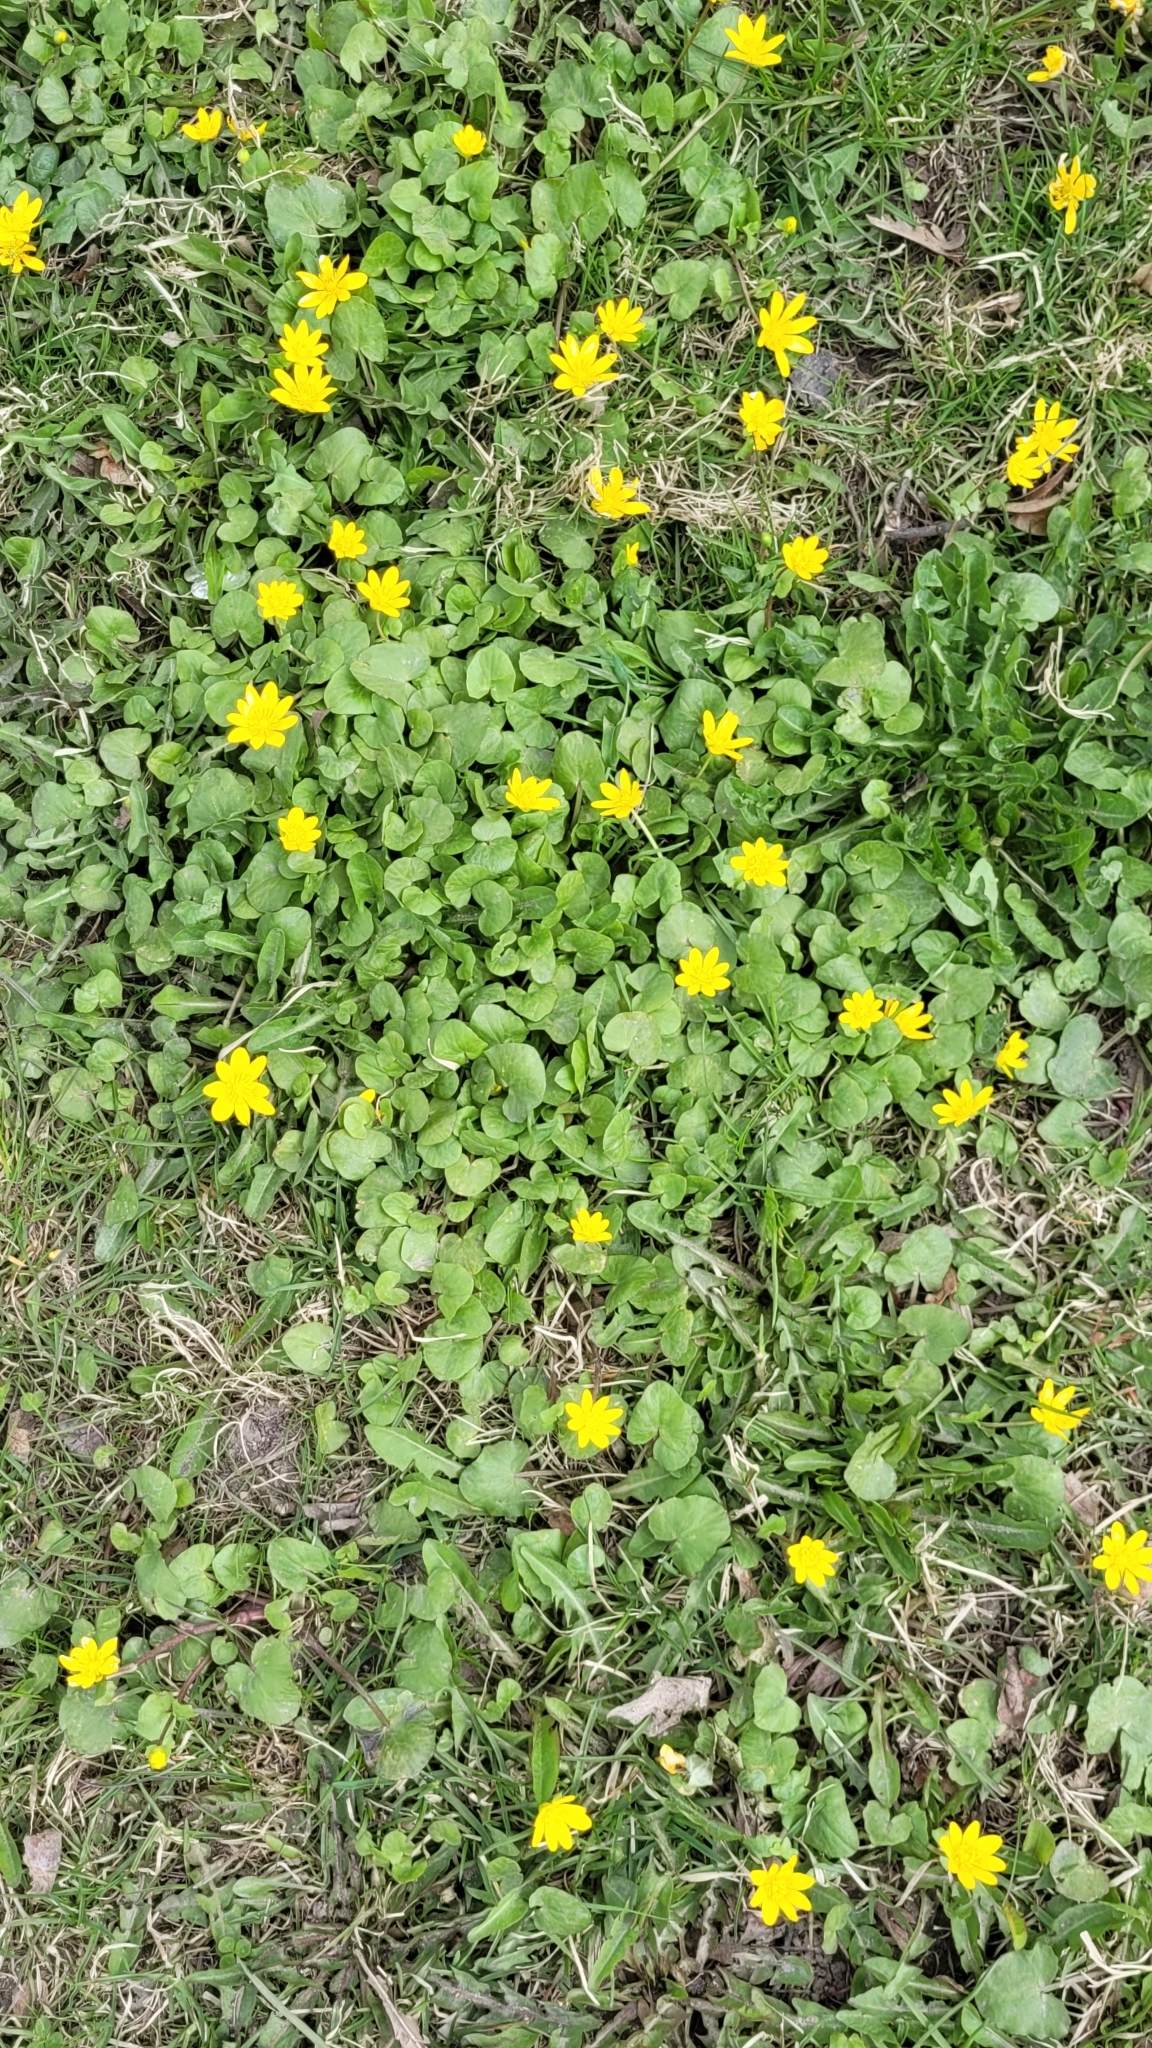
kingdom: Plantae
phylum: Tracheophyta
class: Magnoliopsida
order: Ranunculales
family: Ranunculaceae
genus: Ficaria
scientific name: Ficaria verna
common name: Lesser celandine
